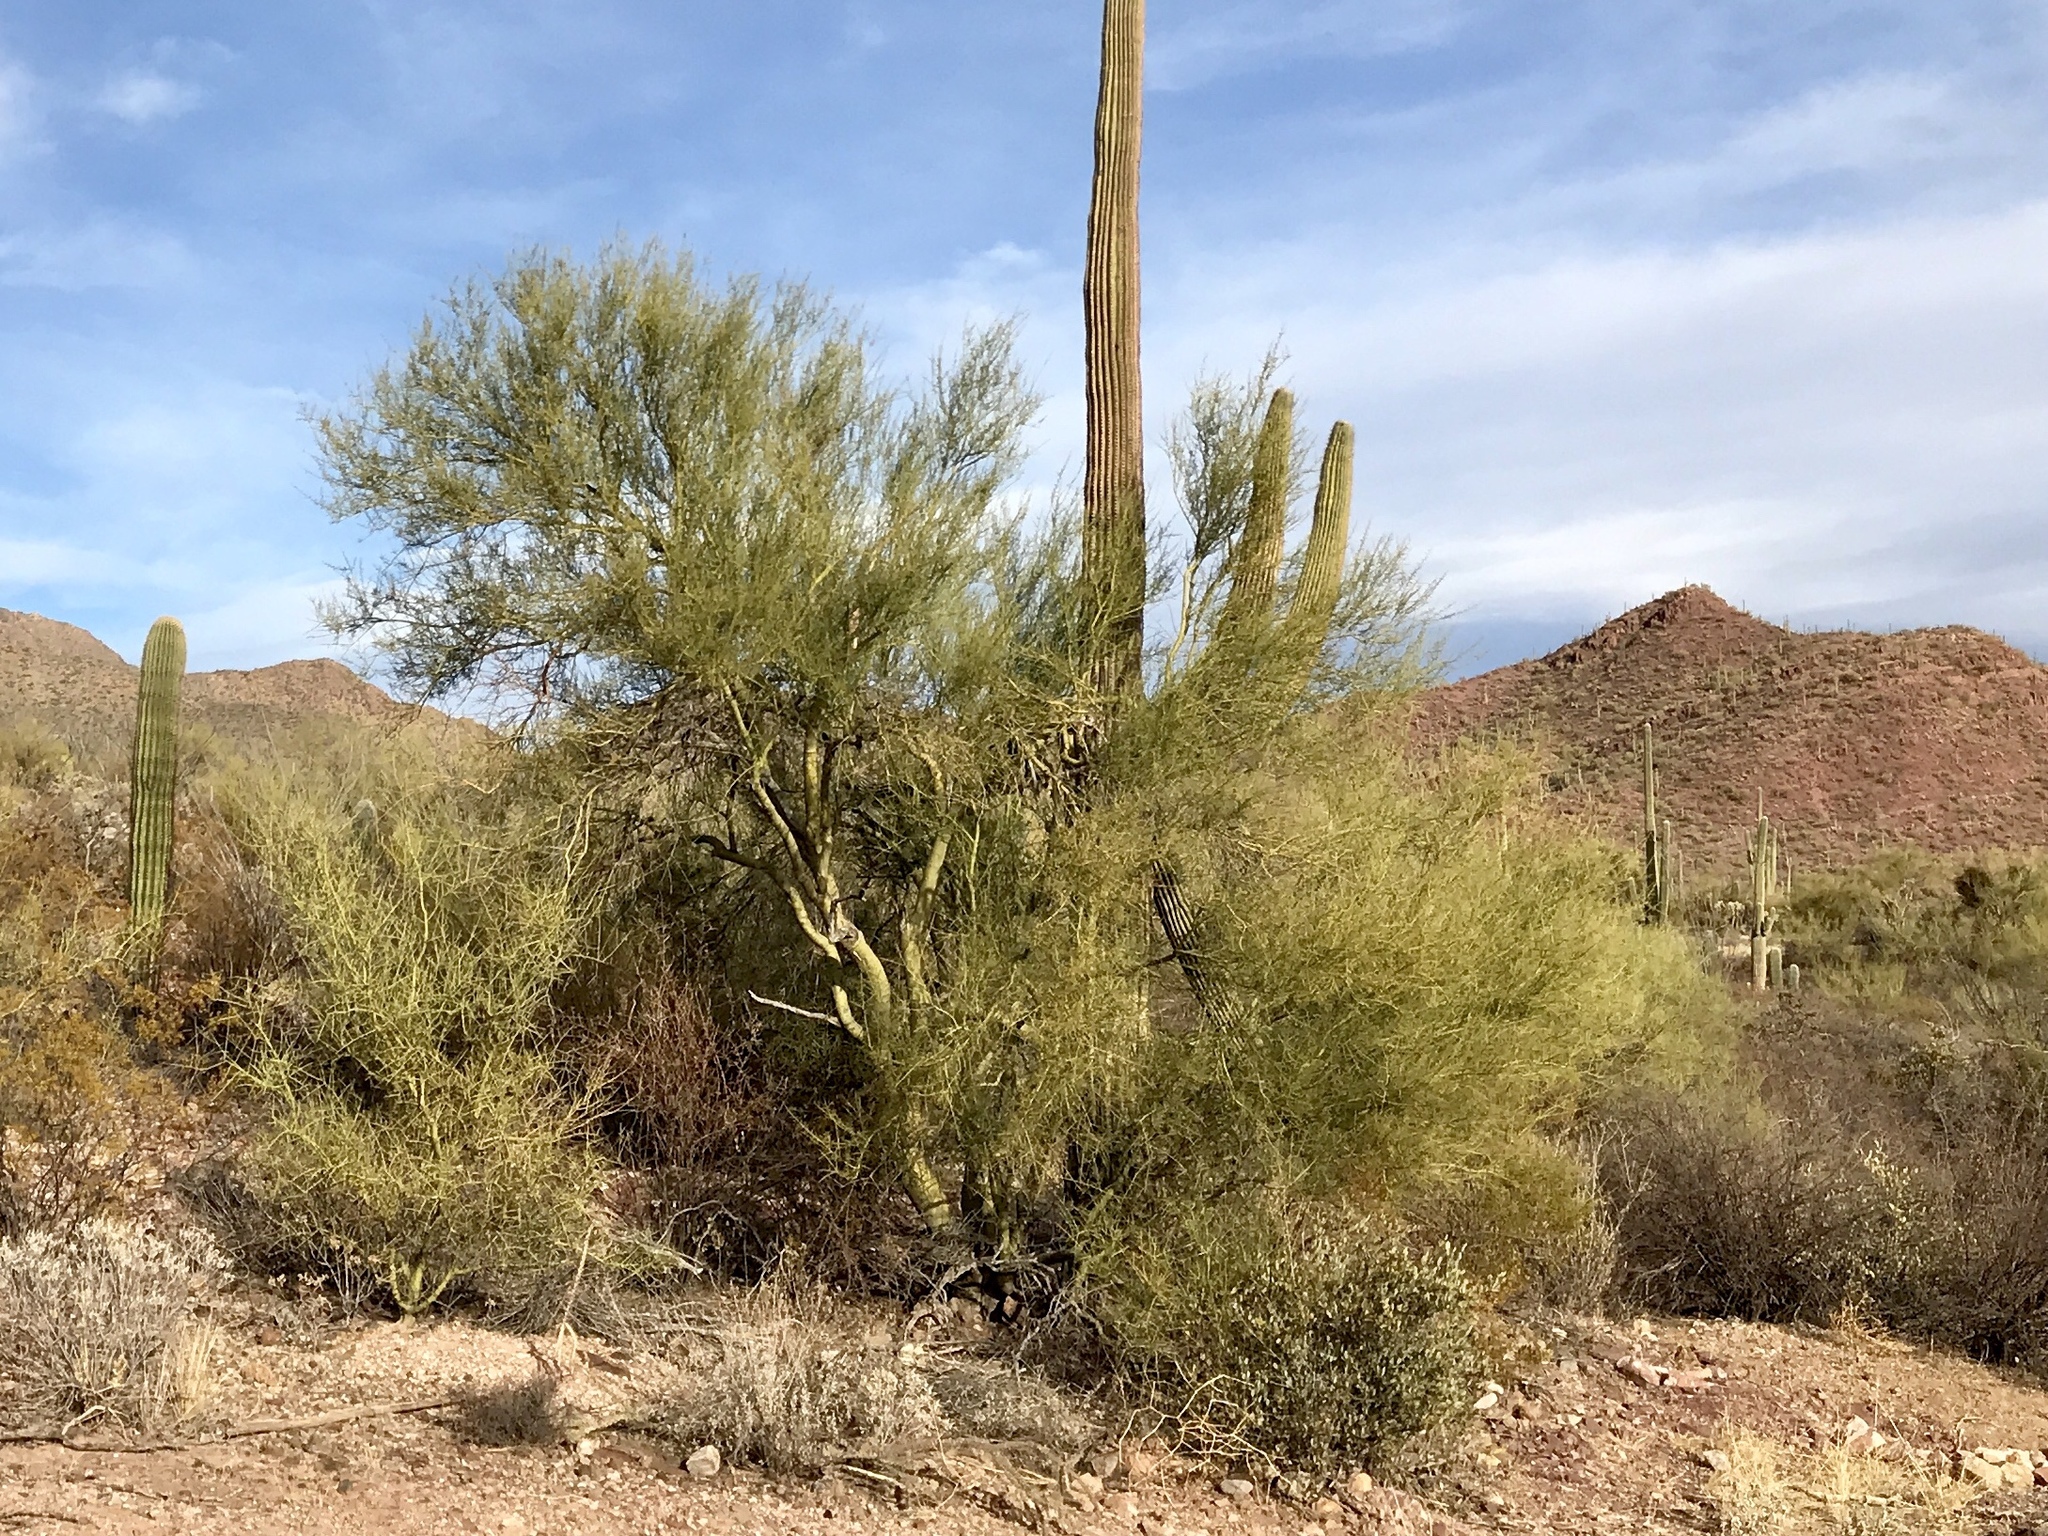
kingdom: Plantae
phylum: Tracheophyta
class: Magnoliopsida
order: Fabales
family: Fabaceae
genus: Parkinsonia
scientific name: Parkinsonia microphylla
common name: Yellow paloverde
